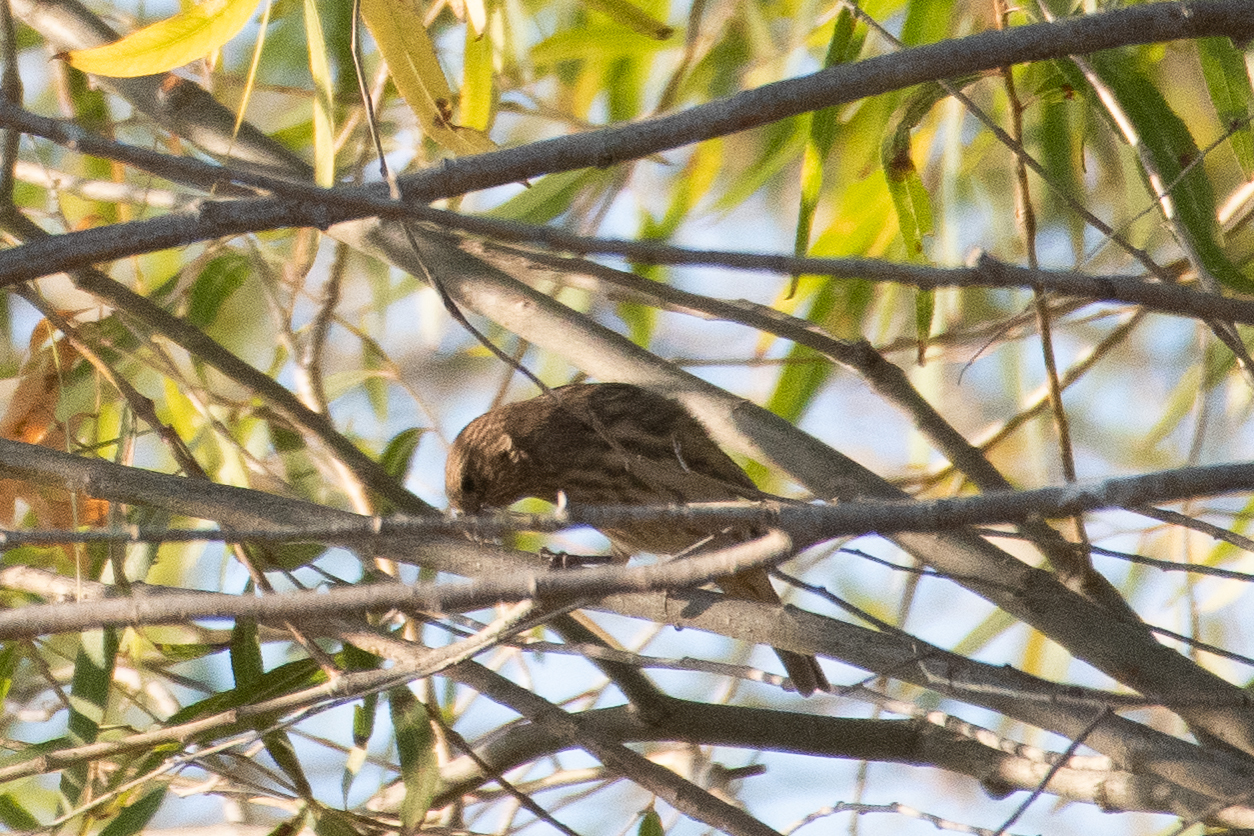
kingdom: Animalia
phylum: Chordata
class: Aves
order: Passeriformes
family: Fringillidae
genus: Haemorhous
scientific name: Haemorhous mexicanus
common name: House finch
